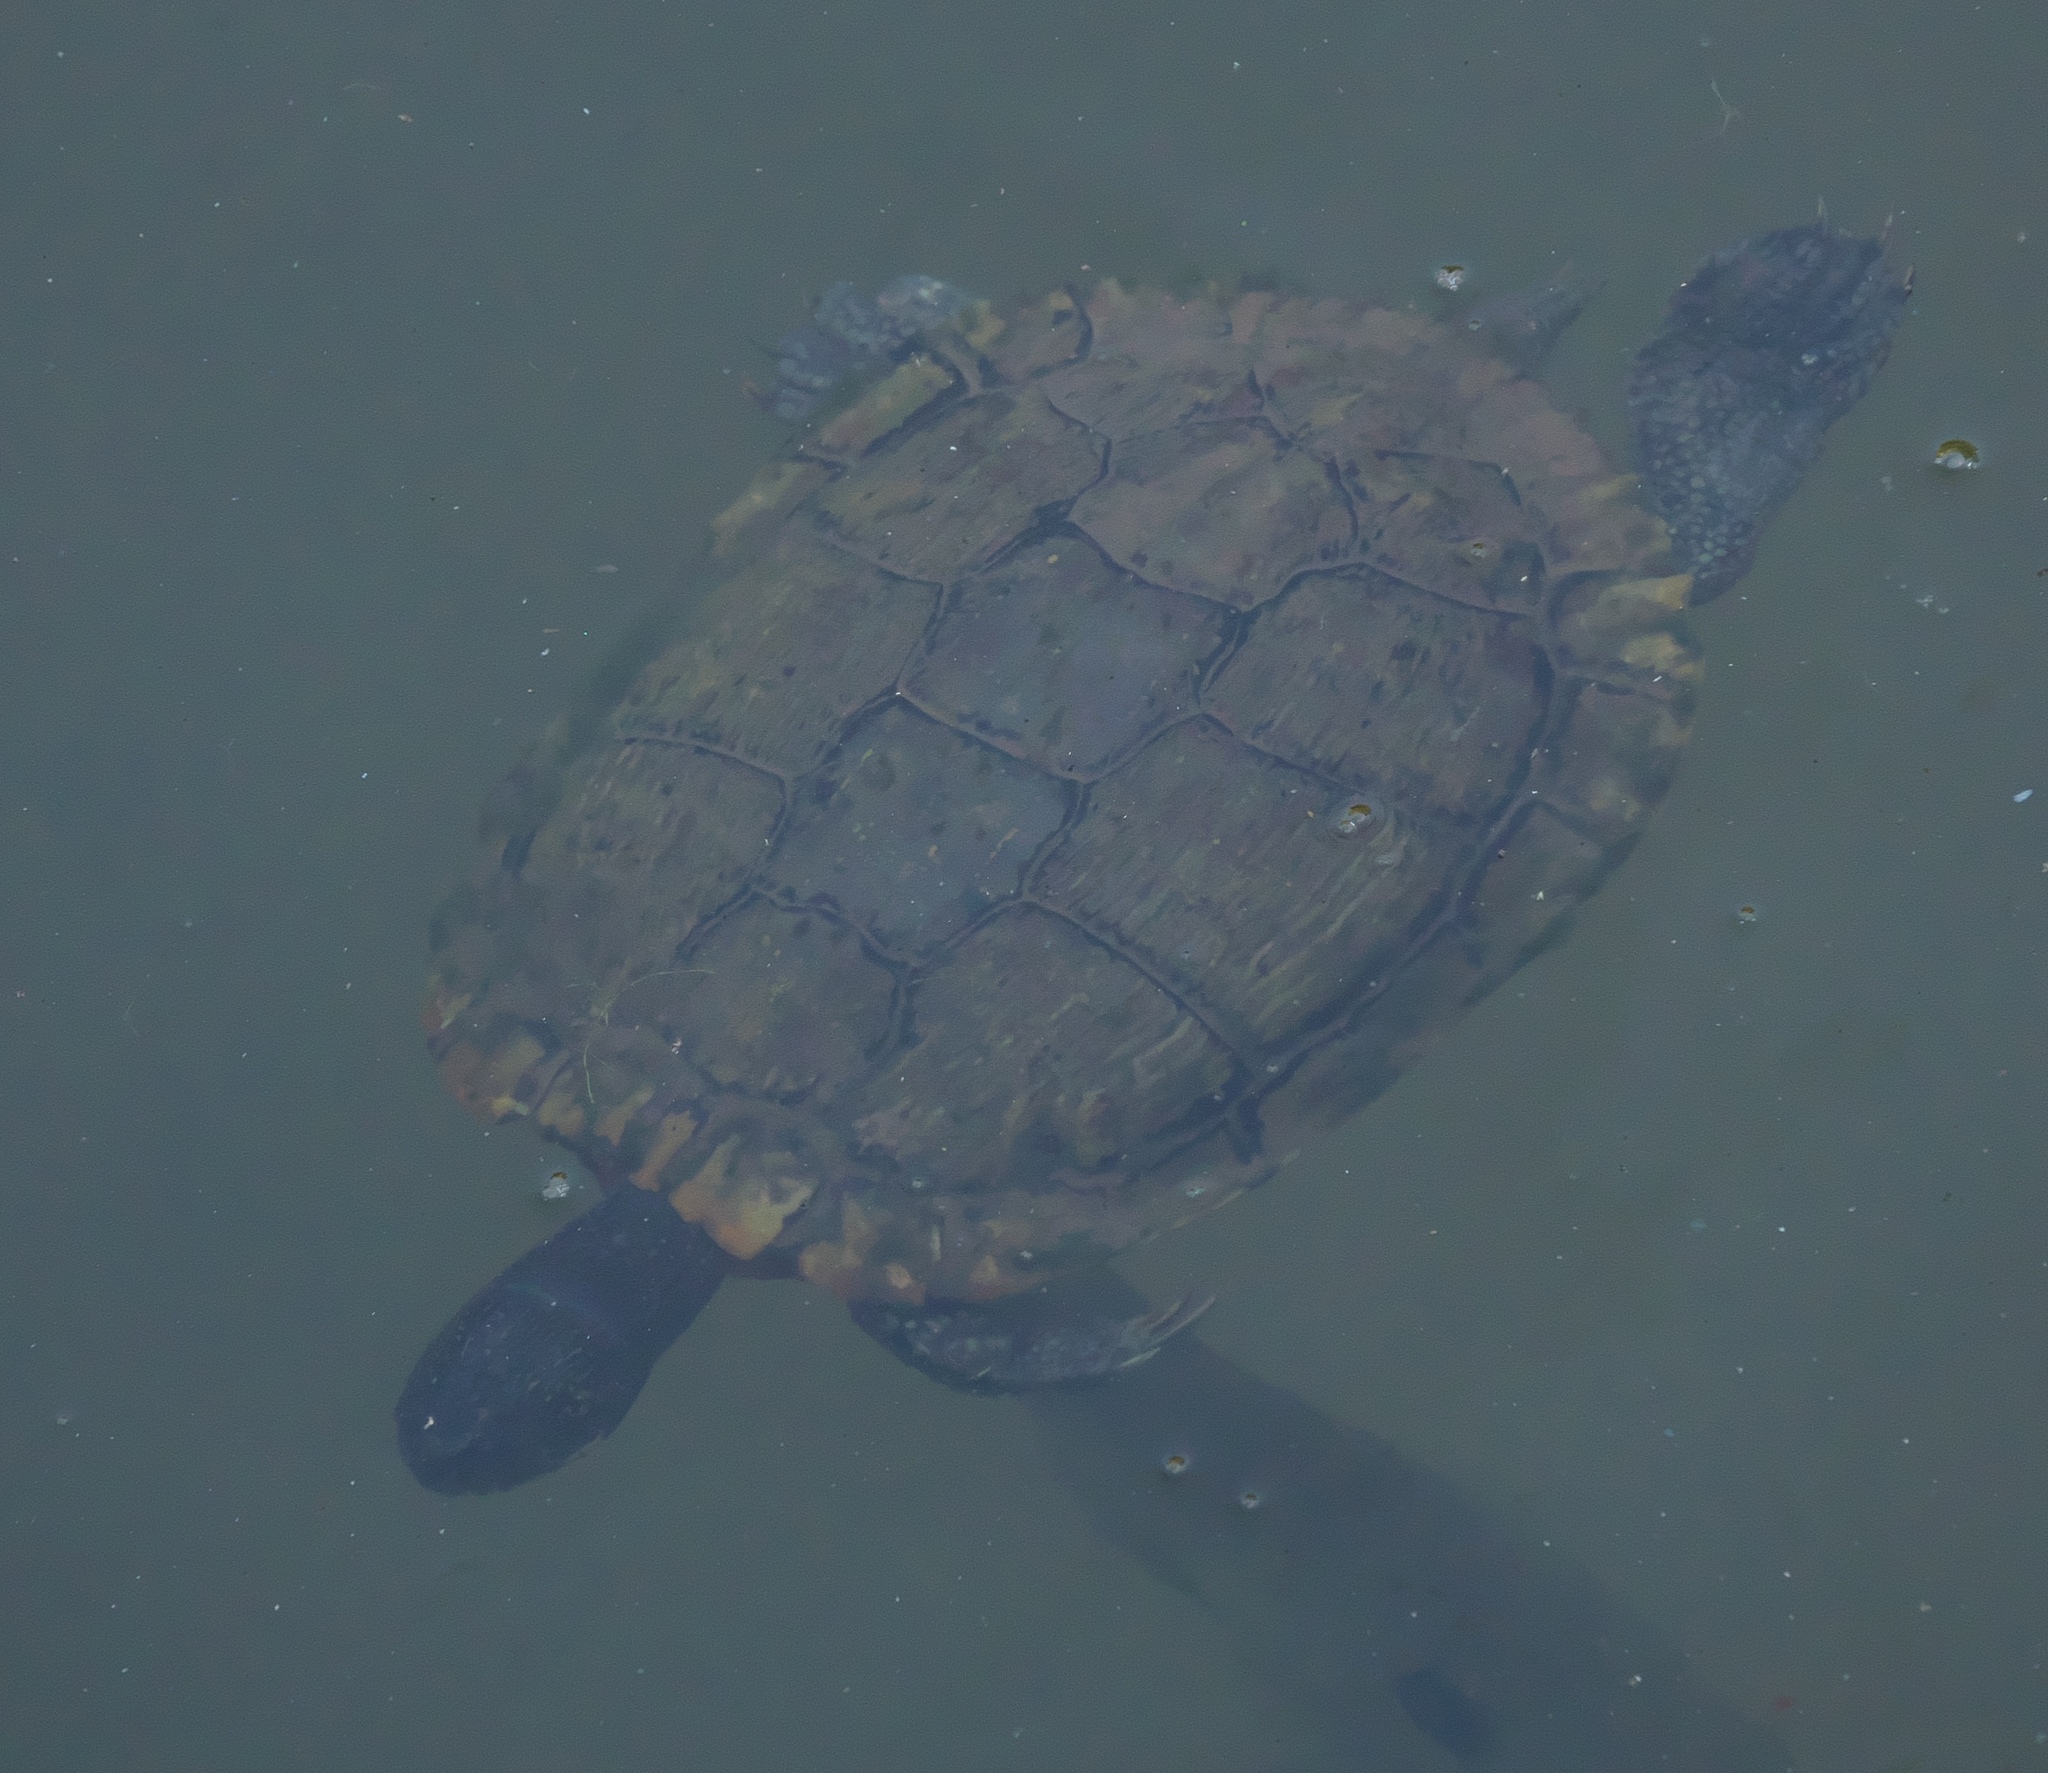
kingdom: Animalia
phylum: Chordata
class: Testudines
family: Emydidae
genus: Trachemys
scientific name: Trachemys scripta
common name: Slider
